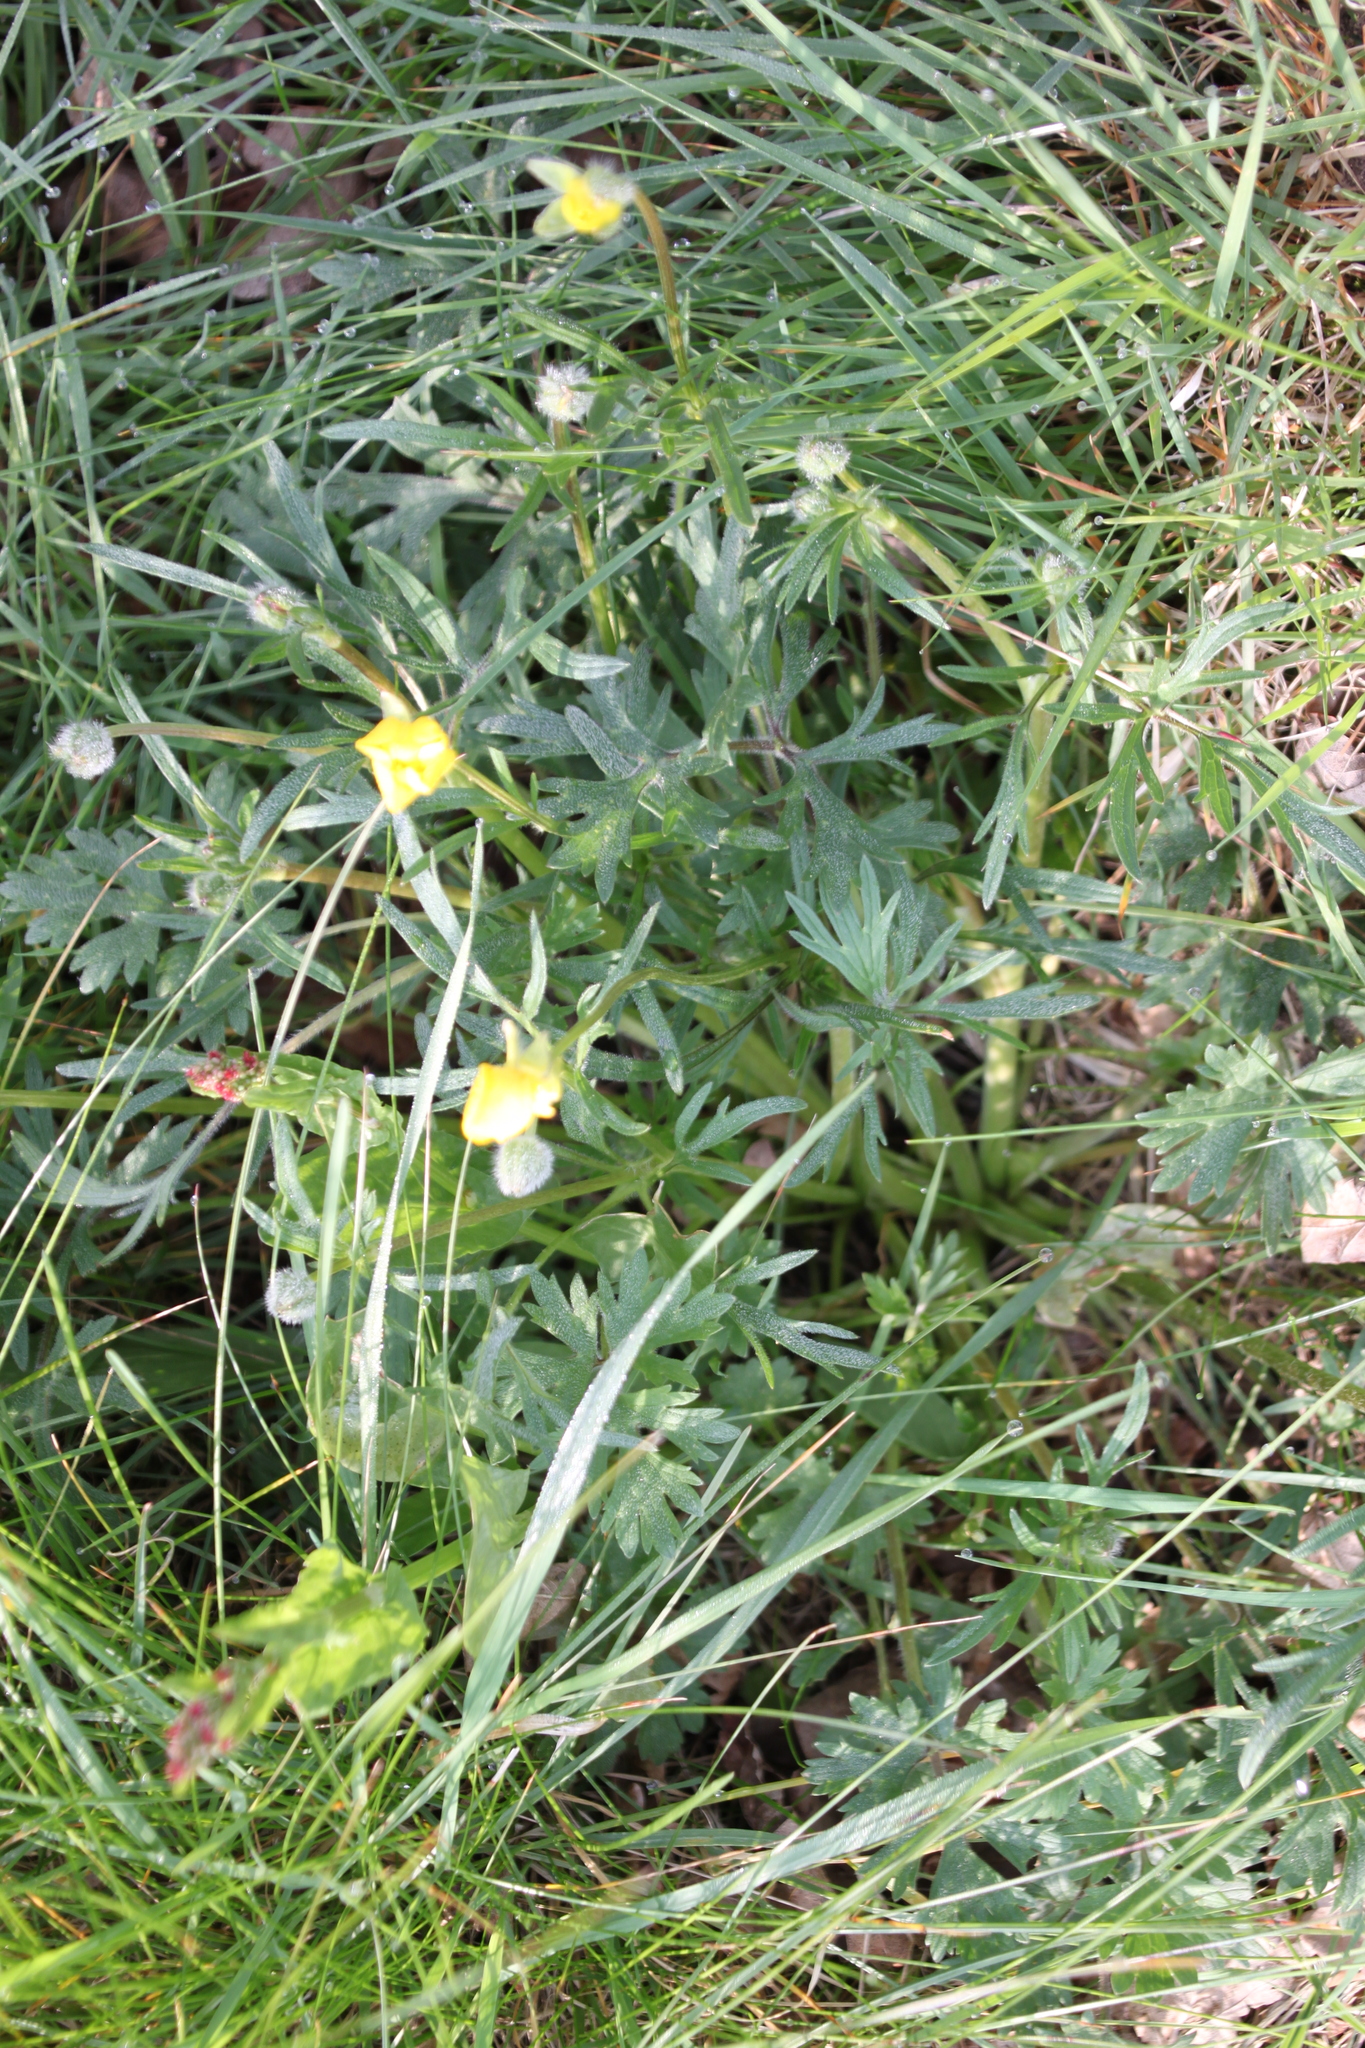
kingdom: Plantae
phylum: Tracheophyta
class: Magnoliopsida
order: Ranunculales
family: Ranunculaceae
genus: Ranunculus
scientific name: Ranunculus bulbosus
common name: Bulbous buttercup
